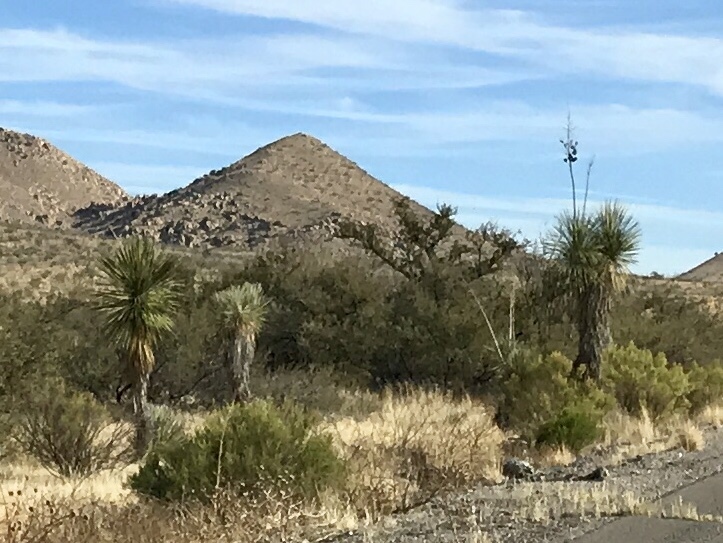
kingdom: Plantae
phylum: Tracheophyta
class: Liliopsida
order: Asparagales
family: Asparagaceae
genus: Yucca
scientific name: Yucca elata
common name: Palmella
